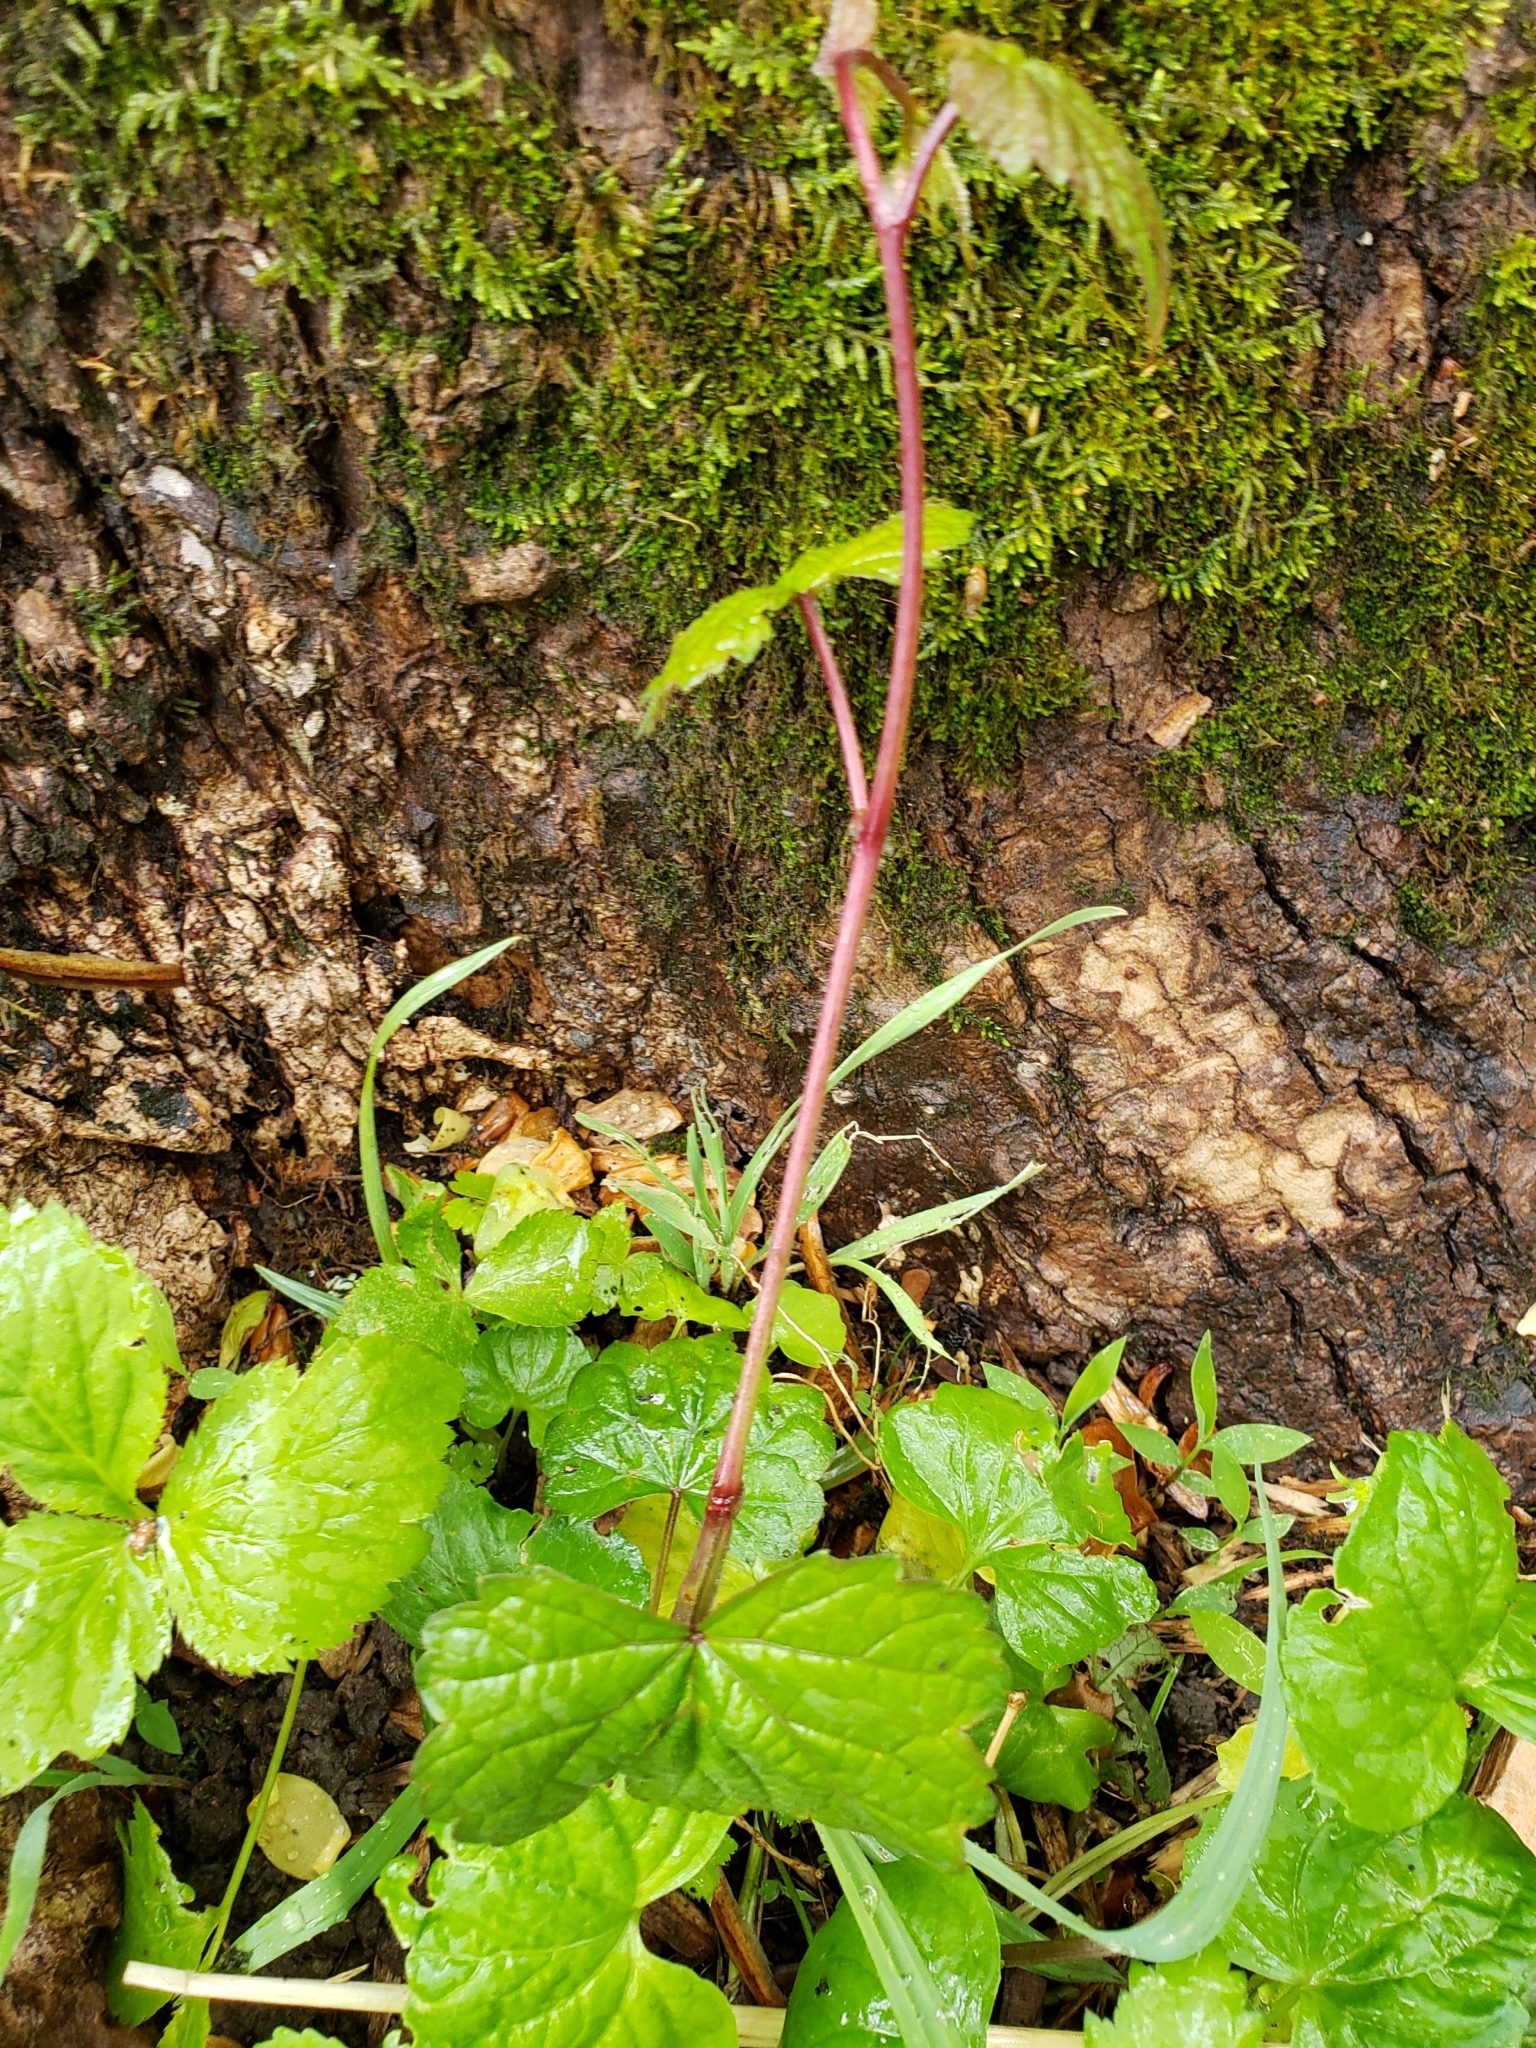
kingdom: Plantae
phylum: Tracheophyta
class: Magnoliopsida
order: Vitales
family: Vitaceae
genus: Ampelopsis
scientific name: Ampelopsis glandulosa
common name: Amur peppervine
